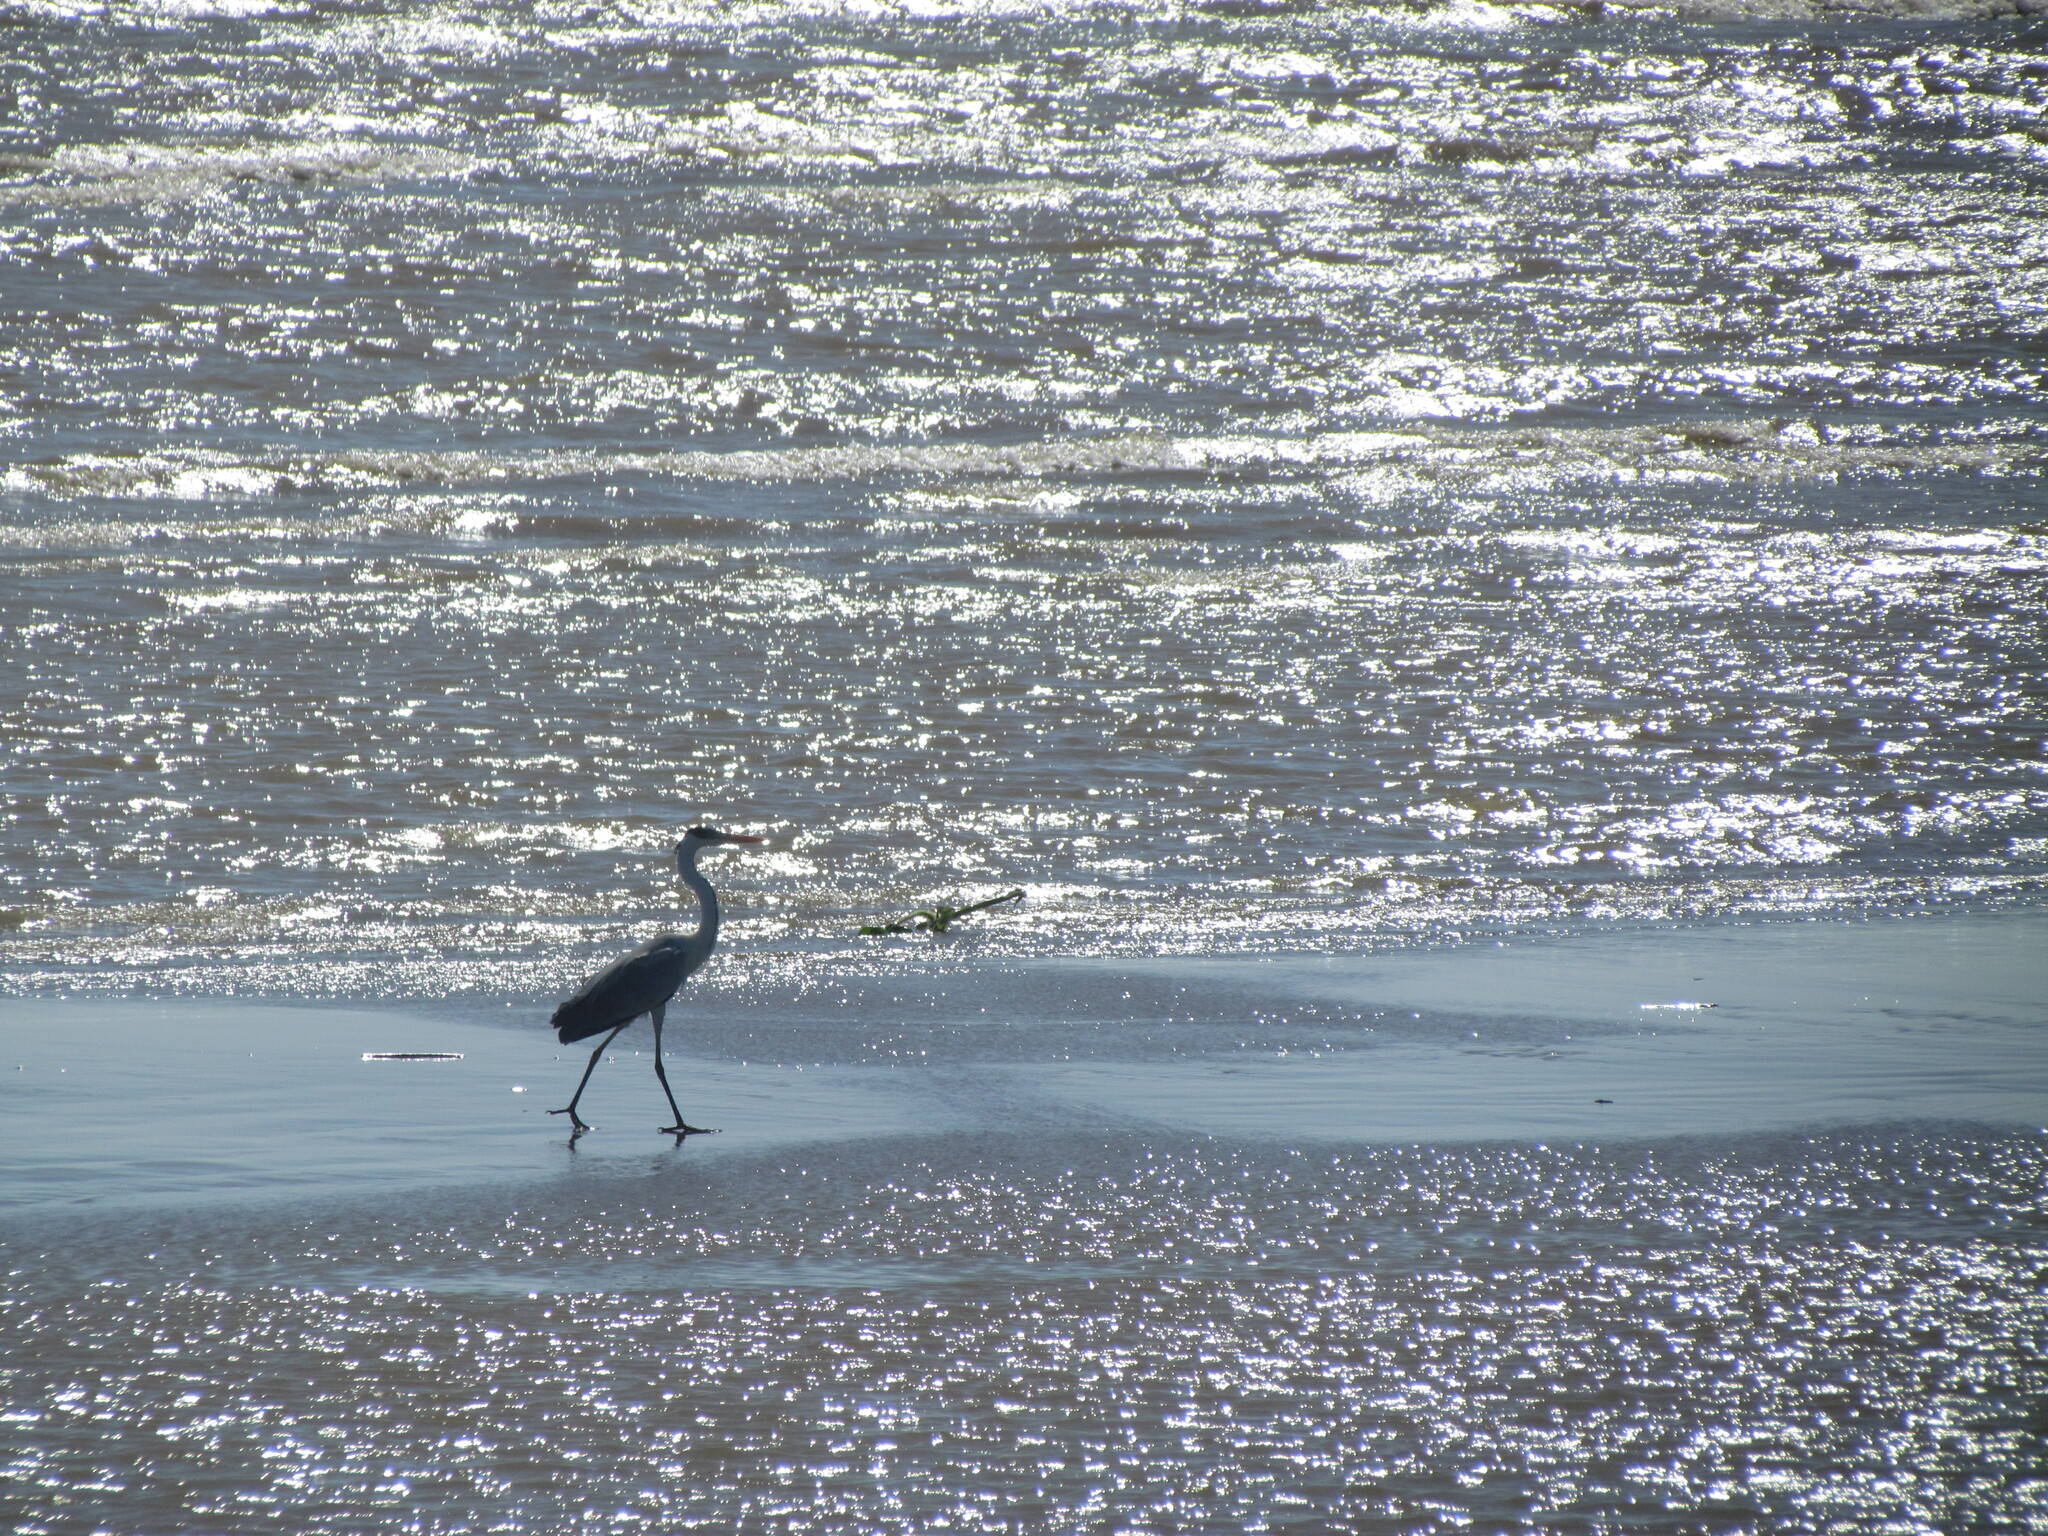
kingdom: Animalia
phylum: Chordata
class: Aves
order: Pelecaniformes
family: Ardeidae
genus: Ardea
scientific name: Ardea cocoi
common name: Cocoi heron
